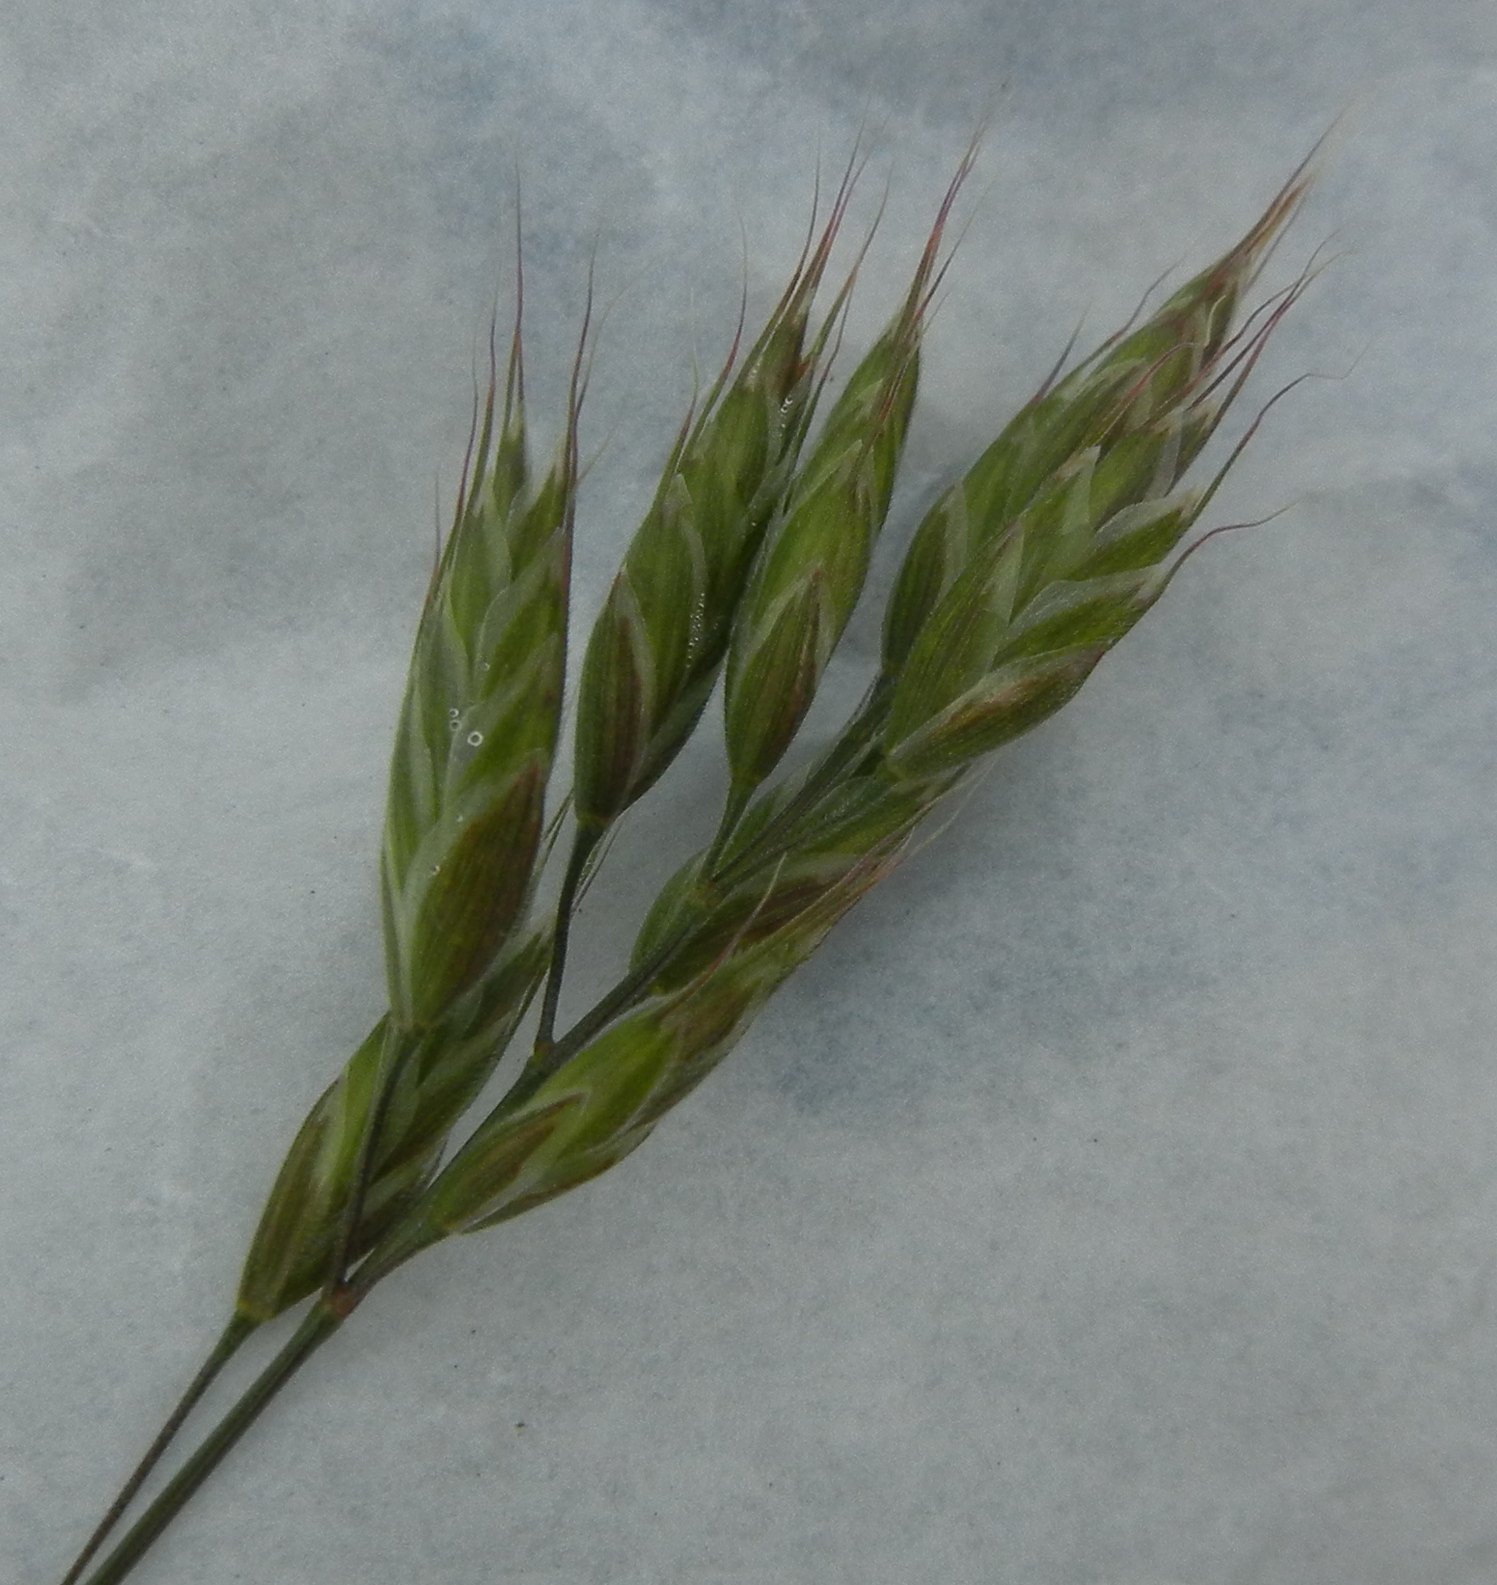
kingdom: Plantae
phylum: Tracheophyta
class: Liliopsida
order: Poales
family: Poaceae
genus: Bromus
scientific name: Bromus hordeaceus
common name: Soft brome
